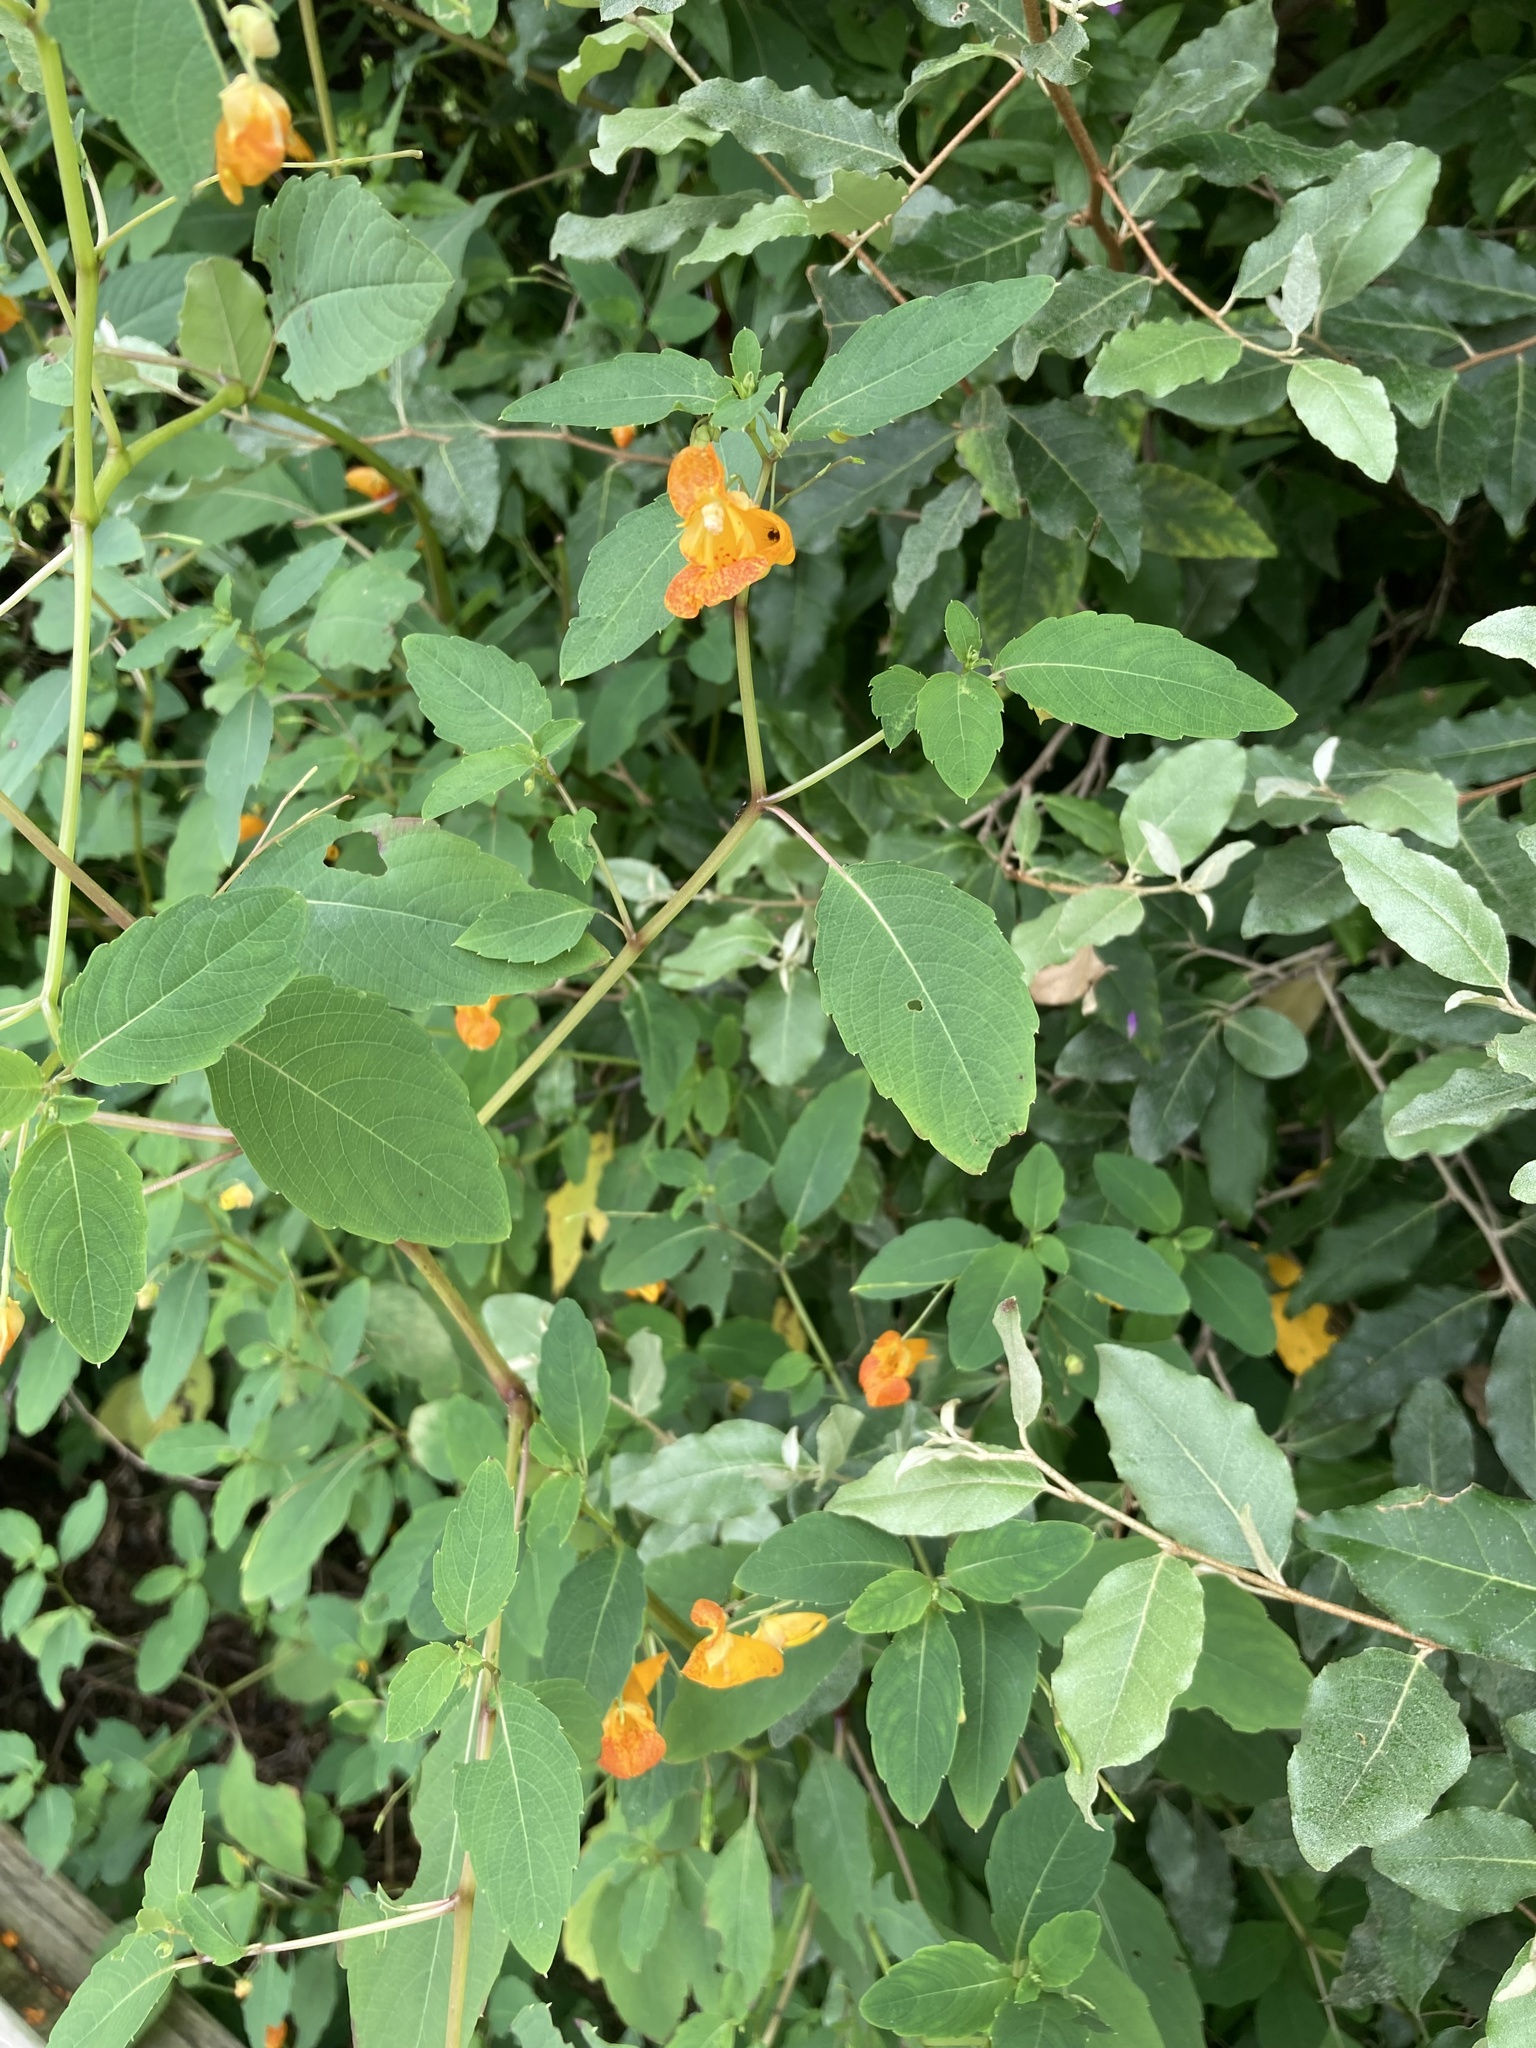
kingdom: Plantae
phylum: Tracheophyta
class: Magnoliopsida
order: Ericales
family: Balsaminaceae
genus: Impatiens
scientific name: Impatiens capensis
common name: Orange balsam
